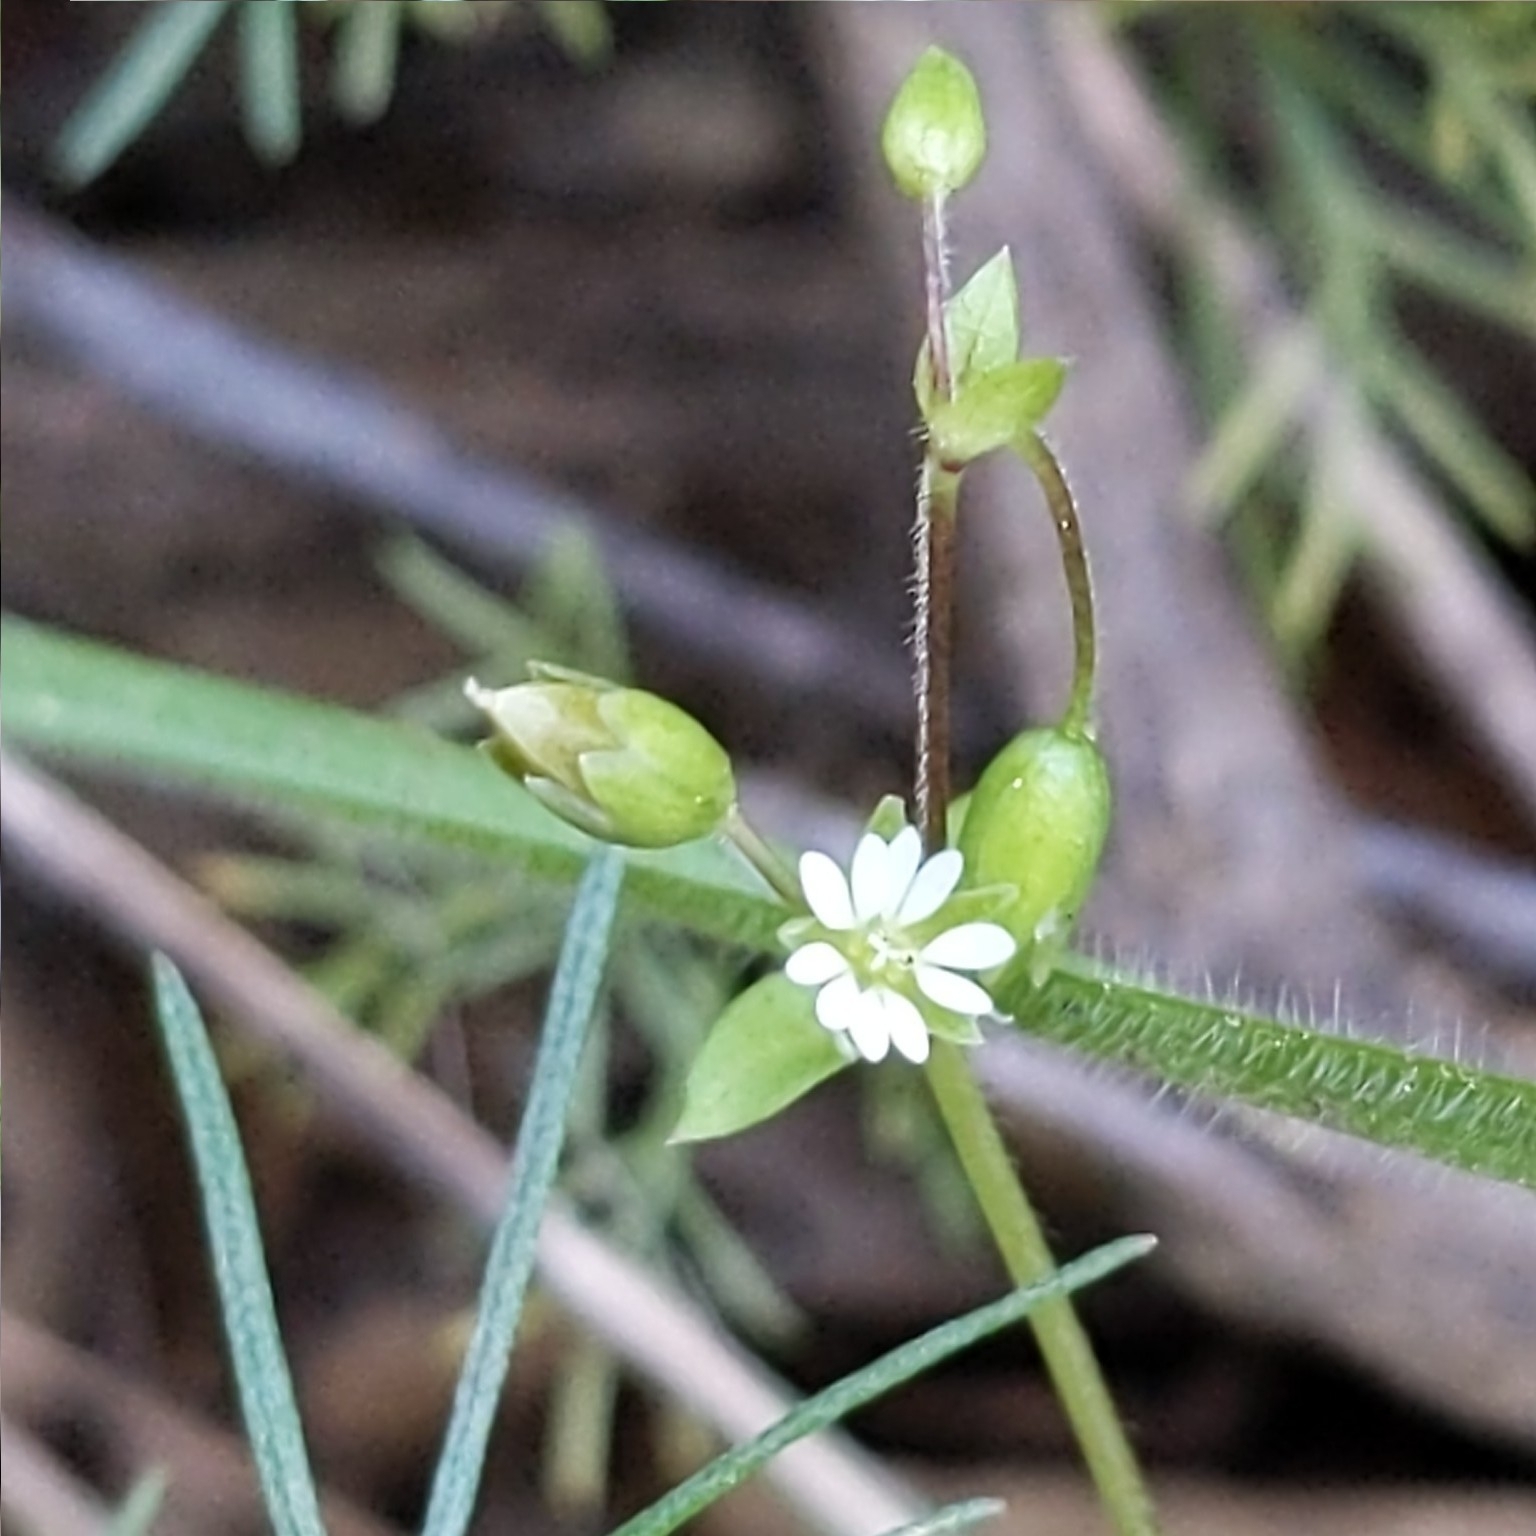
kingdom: Plantae
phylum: Tracheophyta
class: Magnoliopsida
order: Caryophyllales
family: Caryophyllaceae
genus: Stellaria
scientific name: Stellaria media
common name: Common chickweed
